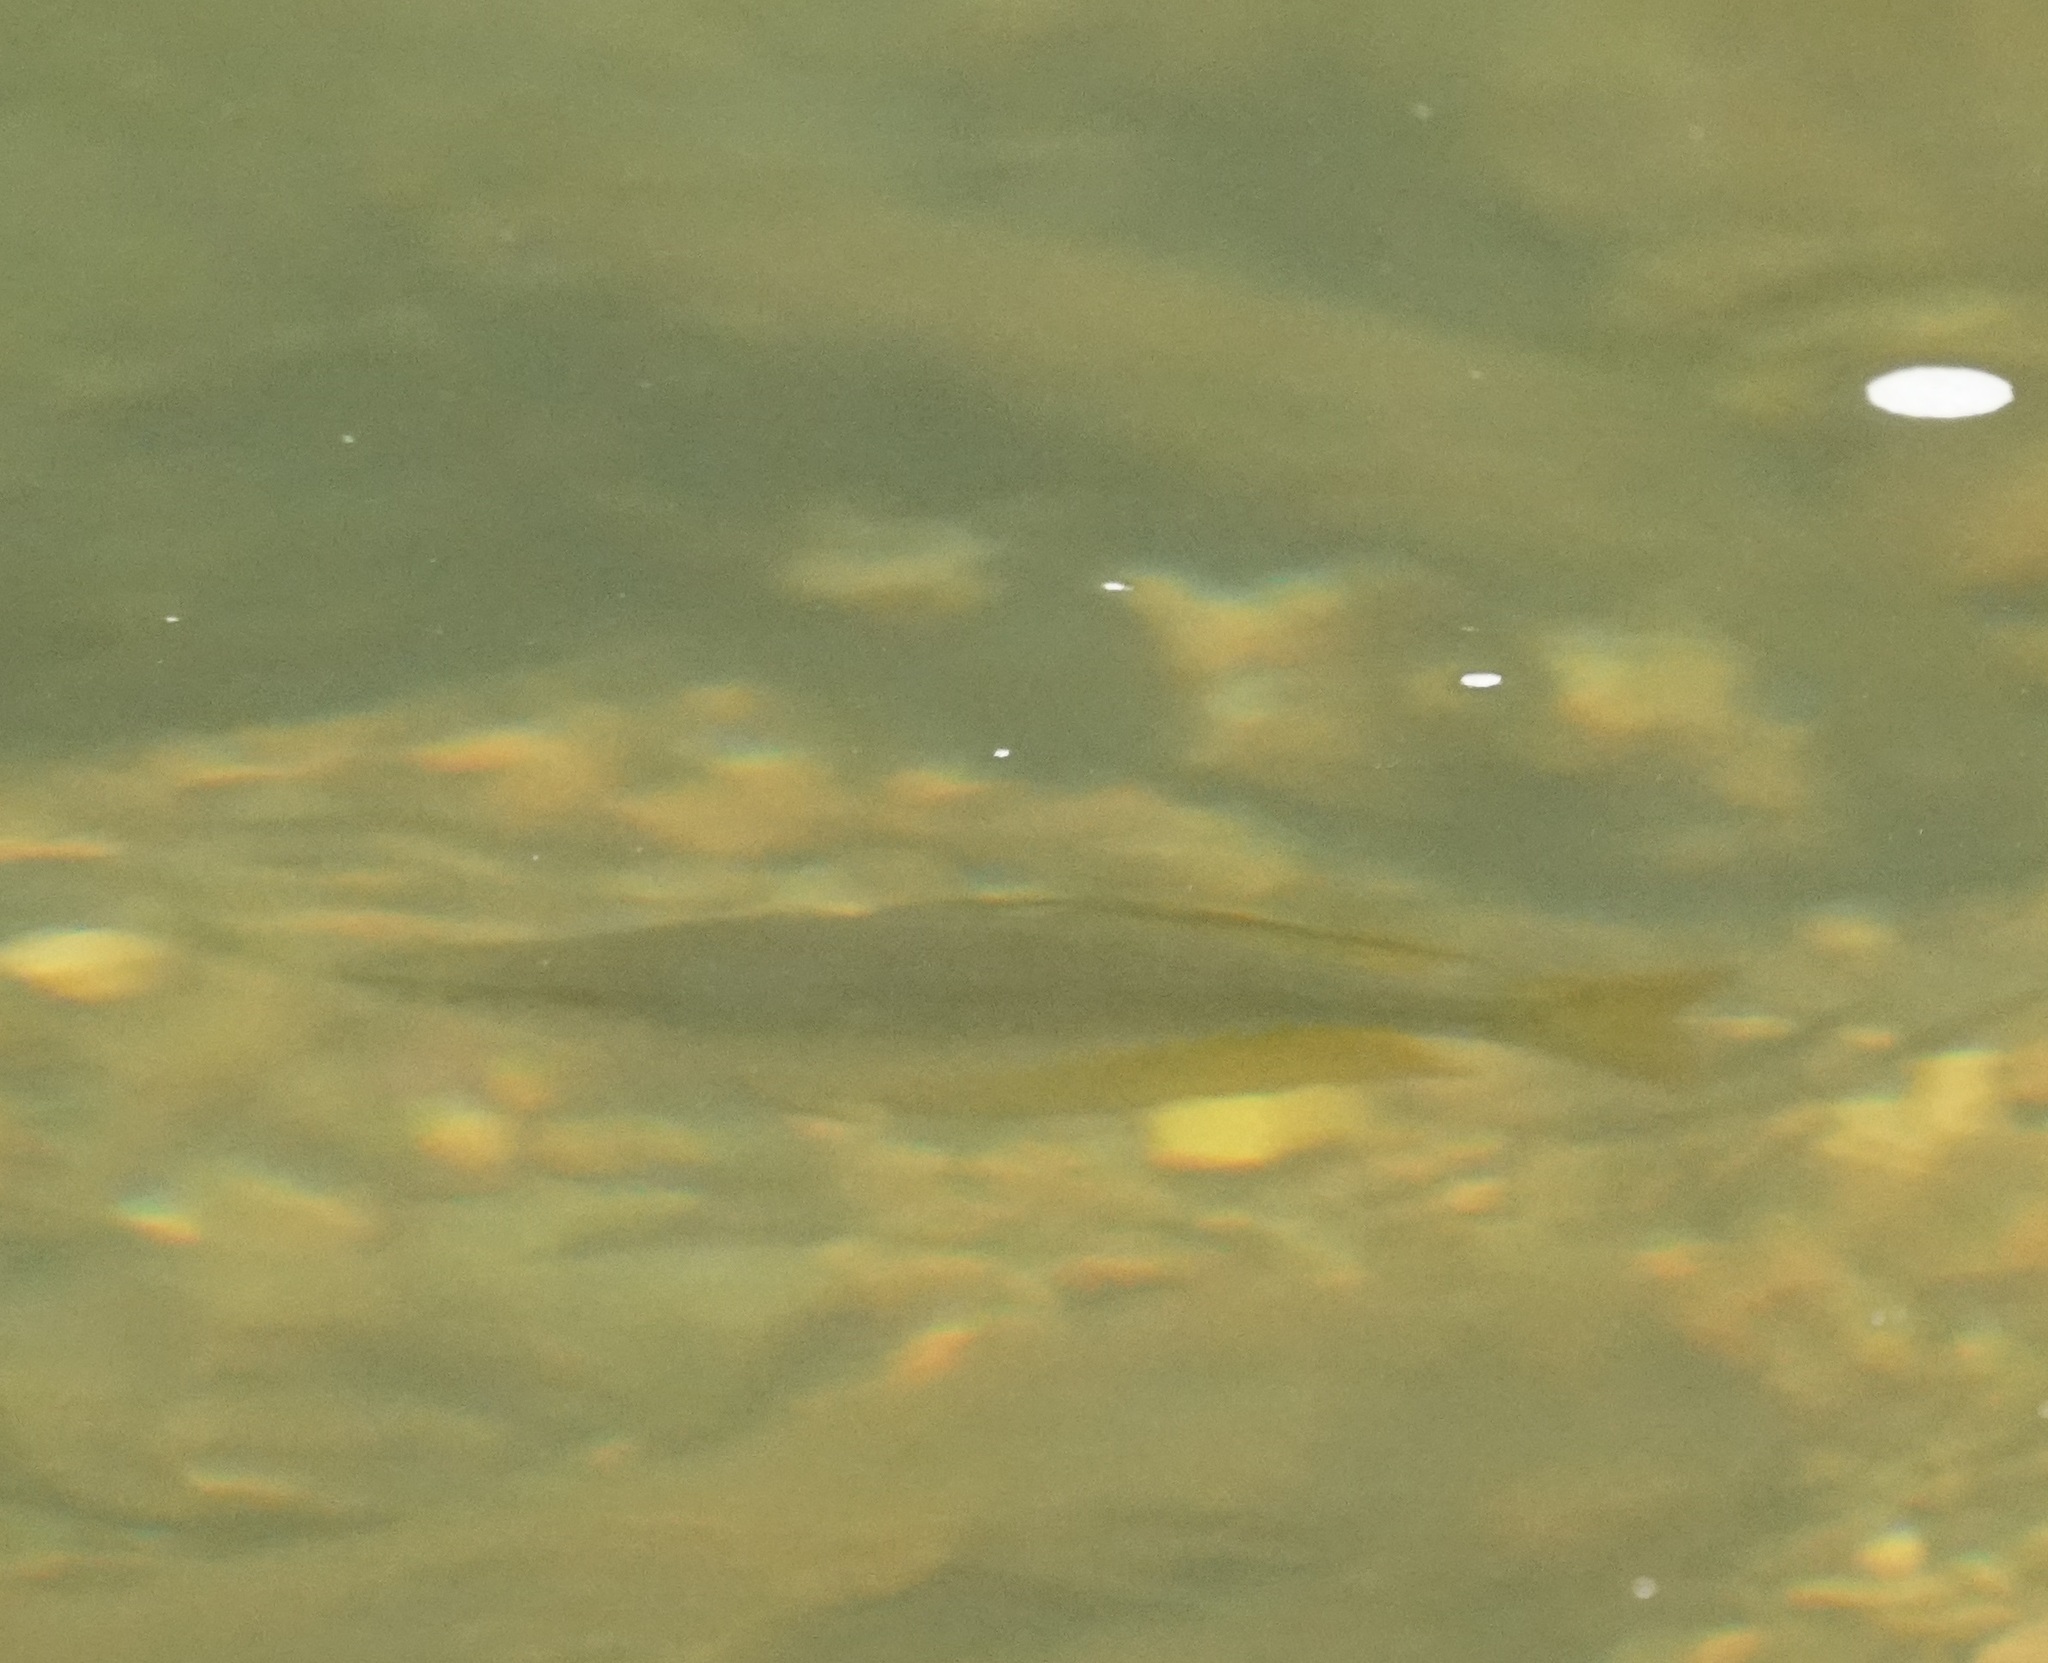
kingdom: Animalia
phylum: Chordata
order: Atheriniformes
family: Melanotaeniidae
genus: Melanotaenia
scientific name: Melanotaenia splendida
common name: Checkered rainbowfish
